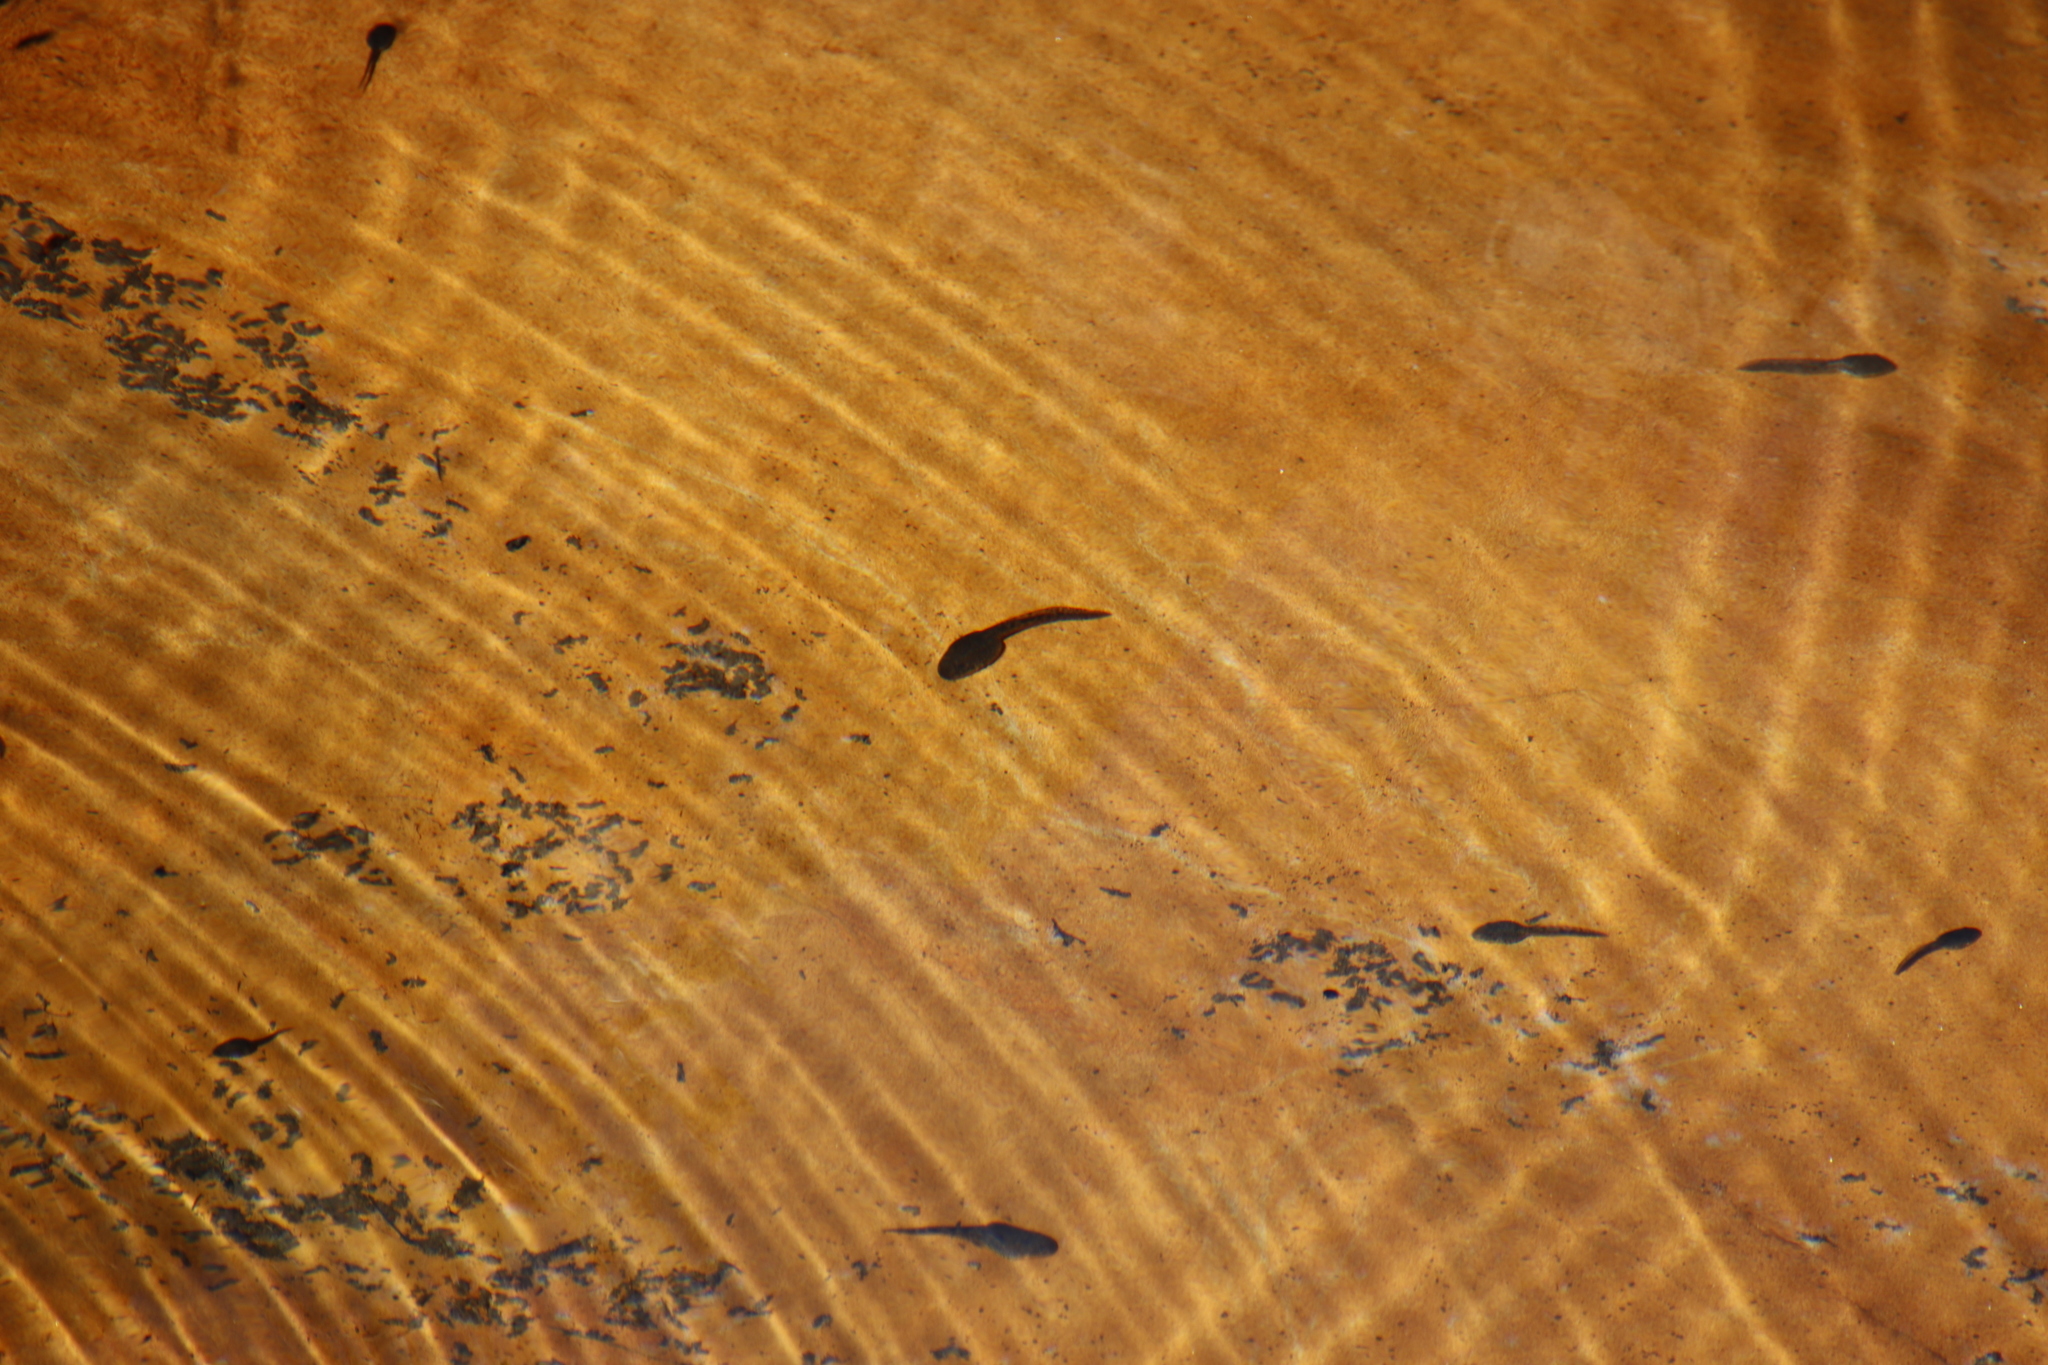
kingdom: Animalia
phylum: Chordata
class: Amphibia
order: Anura
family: Pyxicephalidae
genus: Amietia
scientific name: Amietia fuscigula
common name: Cape rana
